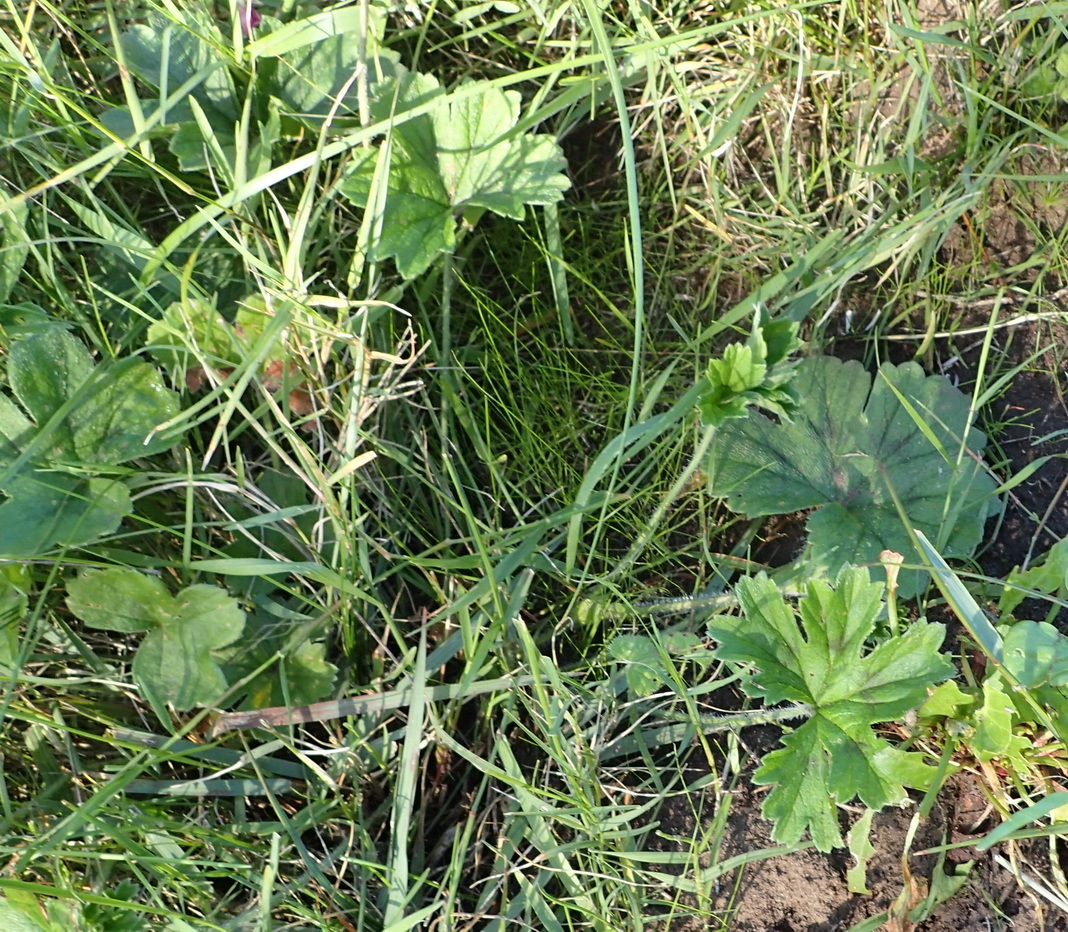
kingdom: Plantae
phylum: Tracheophyta
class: Magnoliopsida
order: Geraniales
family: Geraniaceae
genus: Pelargonium
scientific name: Pelargonium alchemilloides
